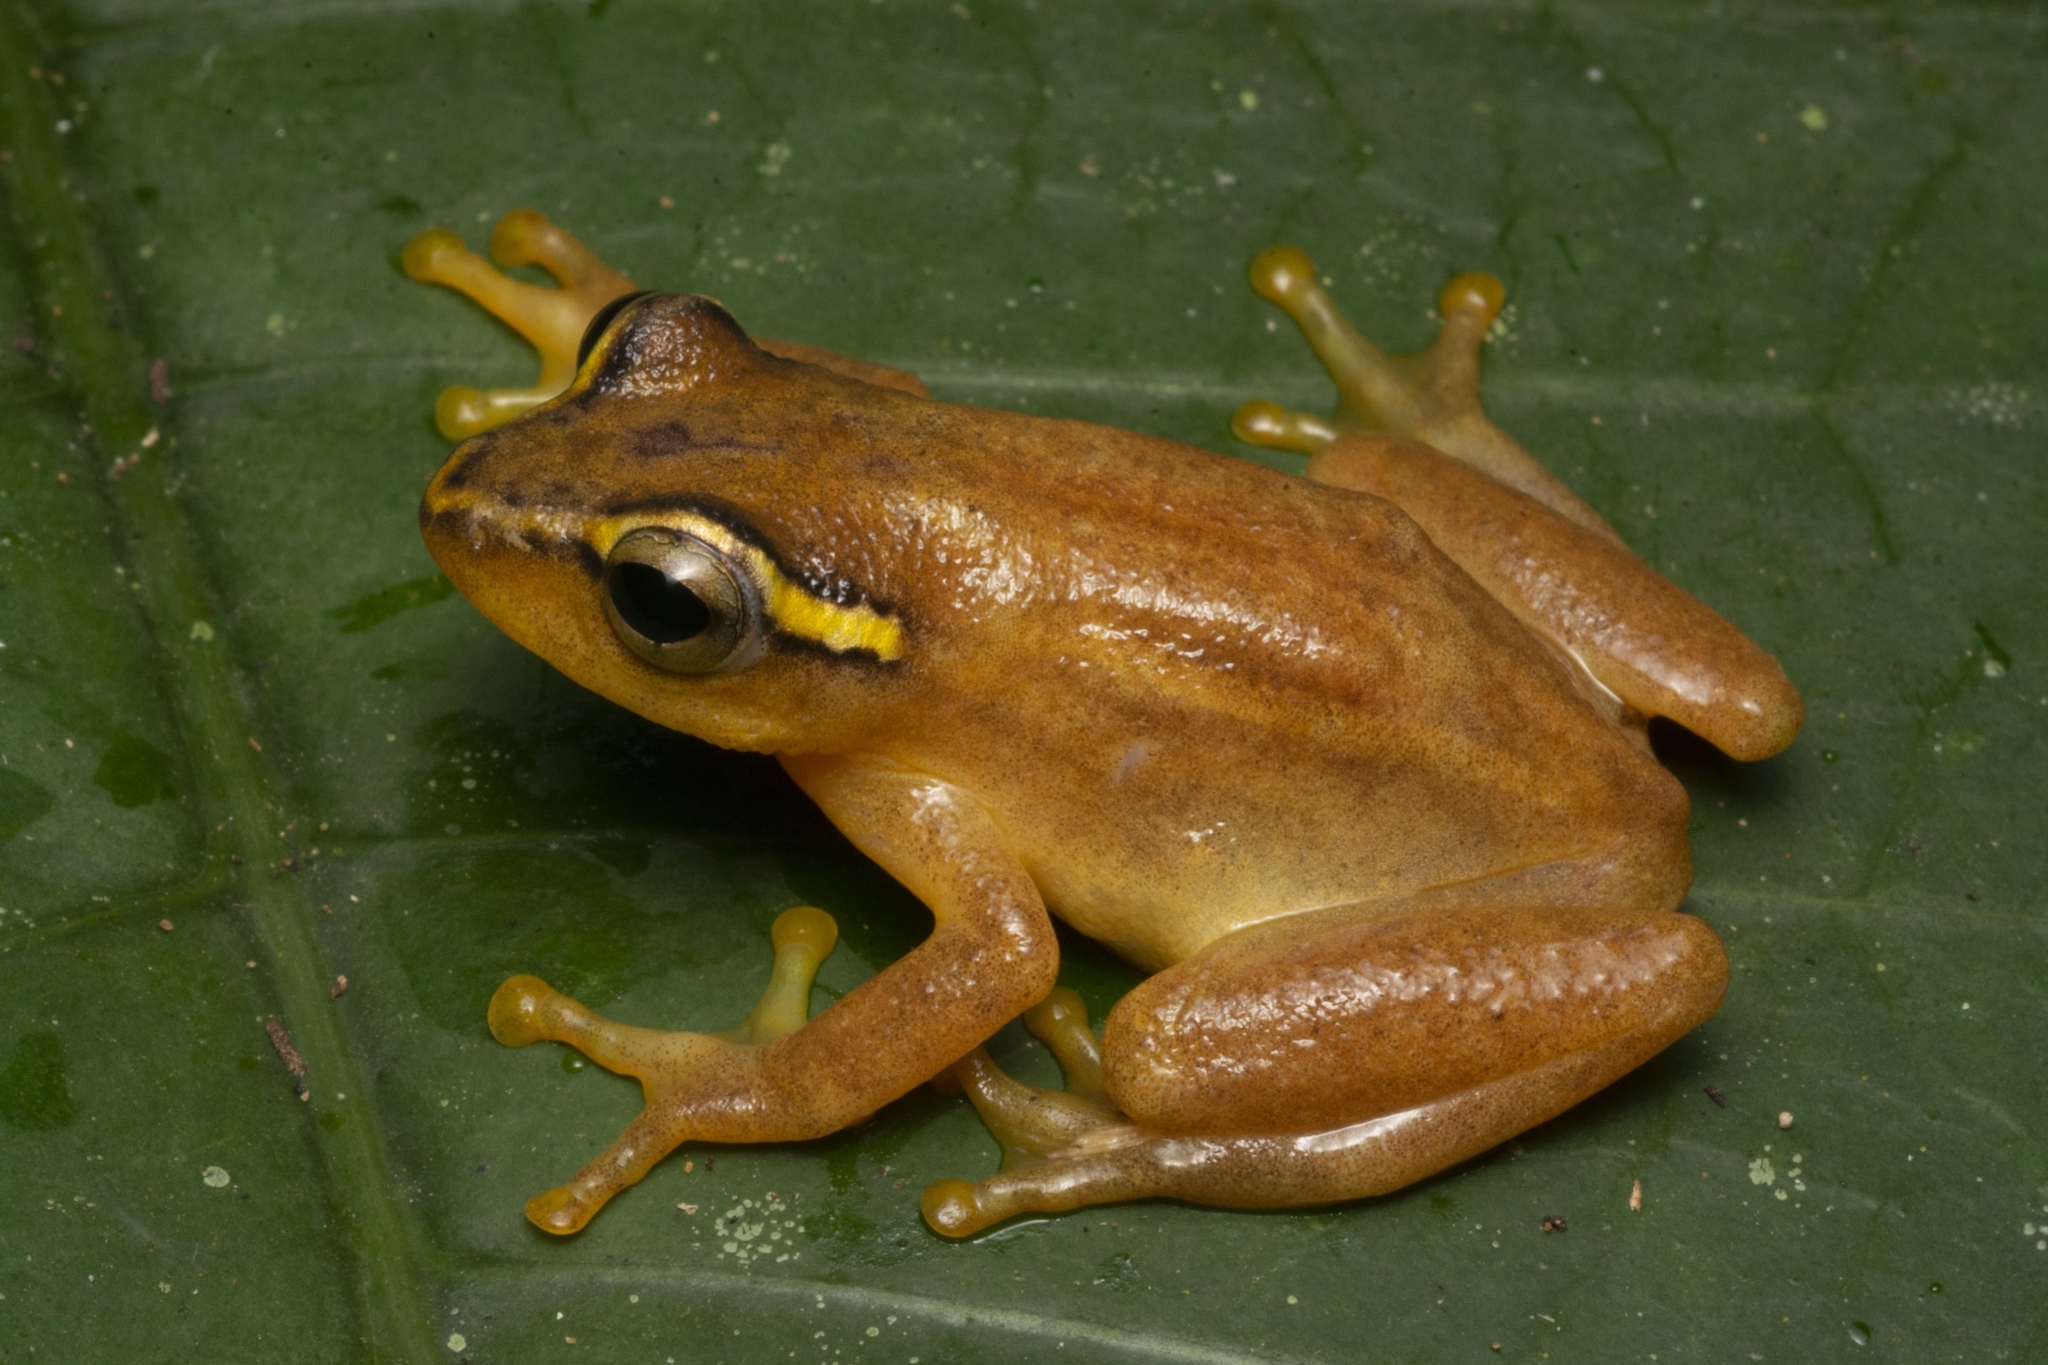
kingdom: Animalia
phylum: Chordata
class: Amphibia
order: Anura
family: Hyperoliidae
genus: Hyperolius
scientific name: Hyperolius substriatus
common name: Spotted reed frog
